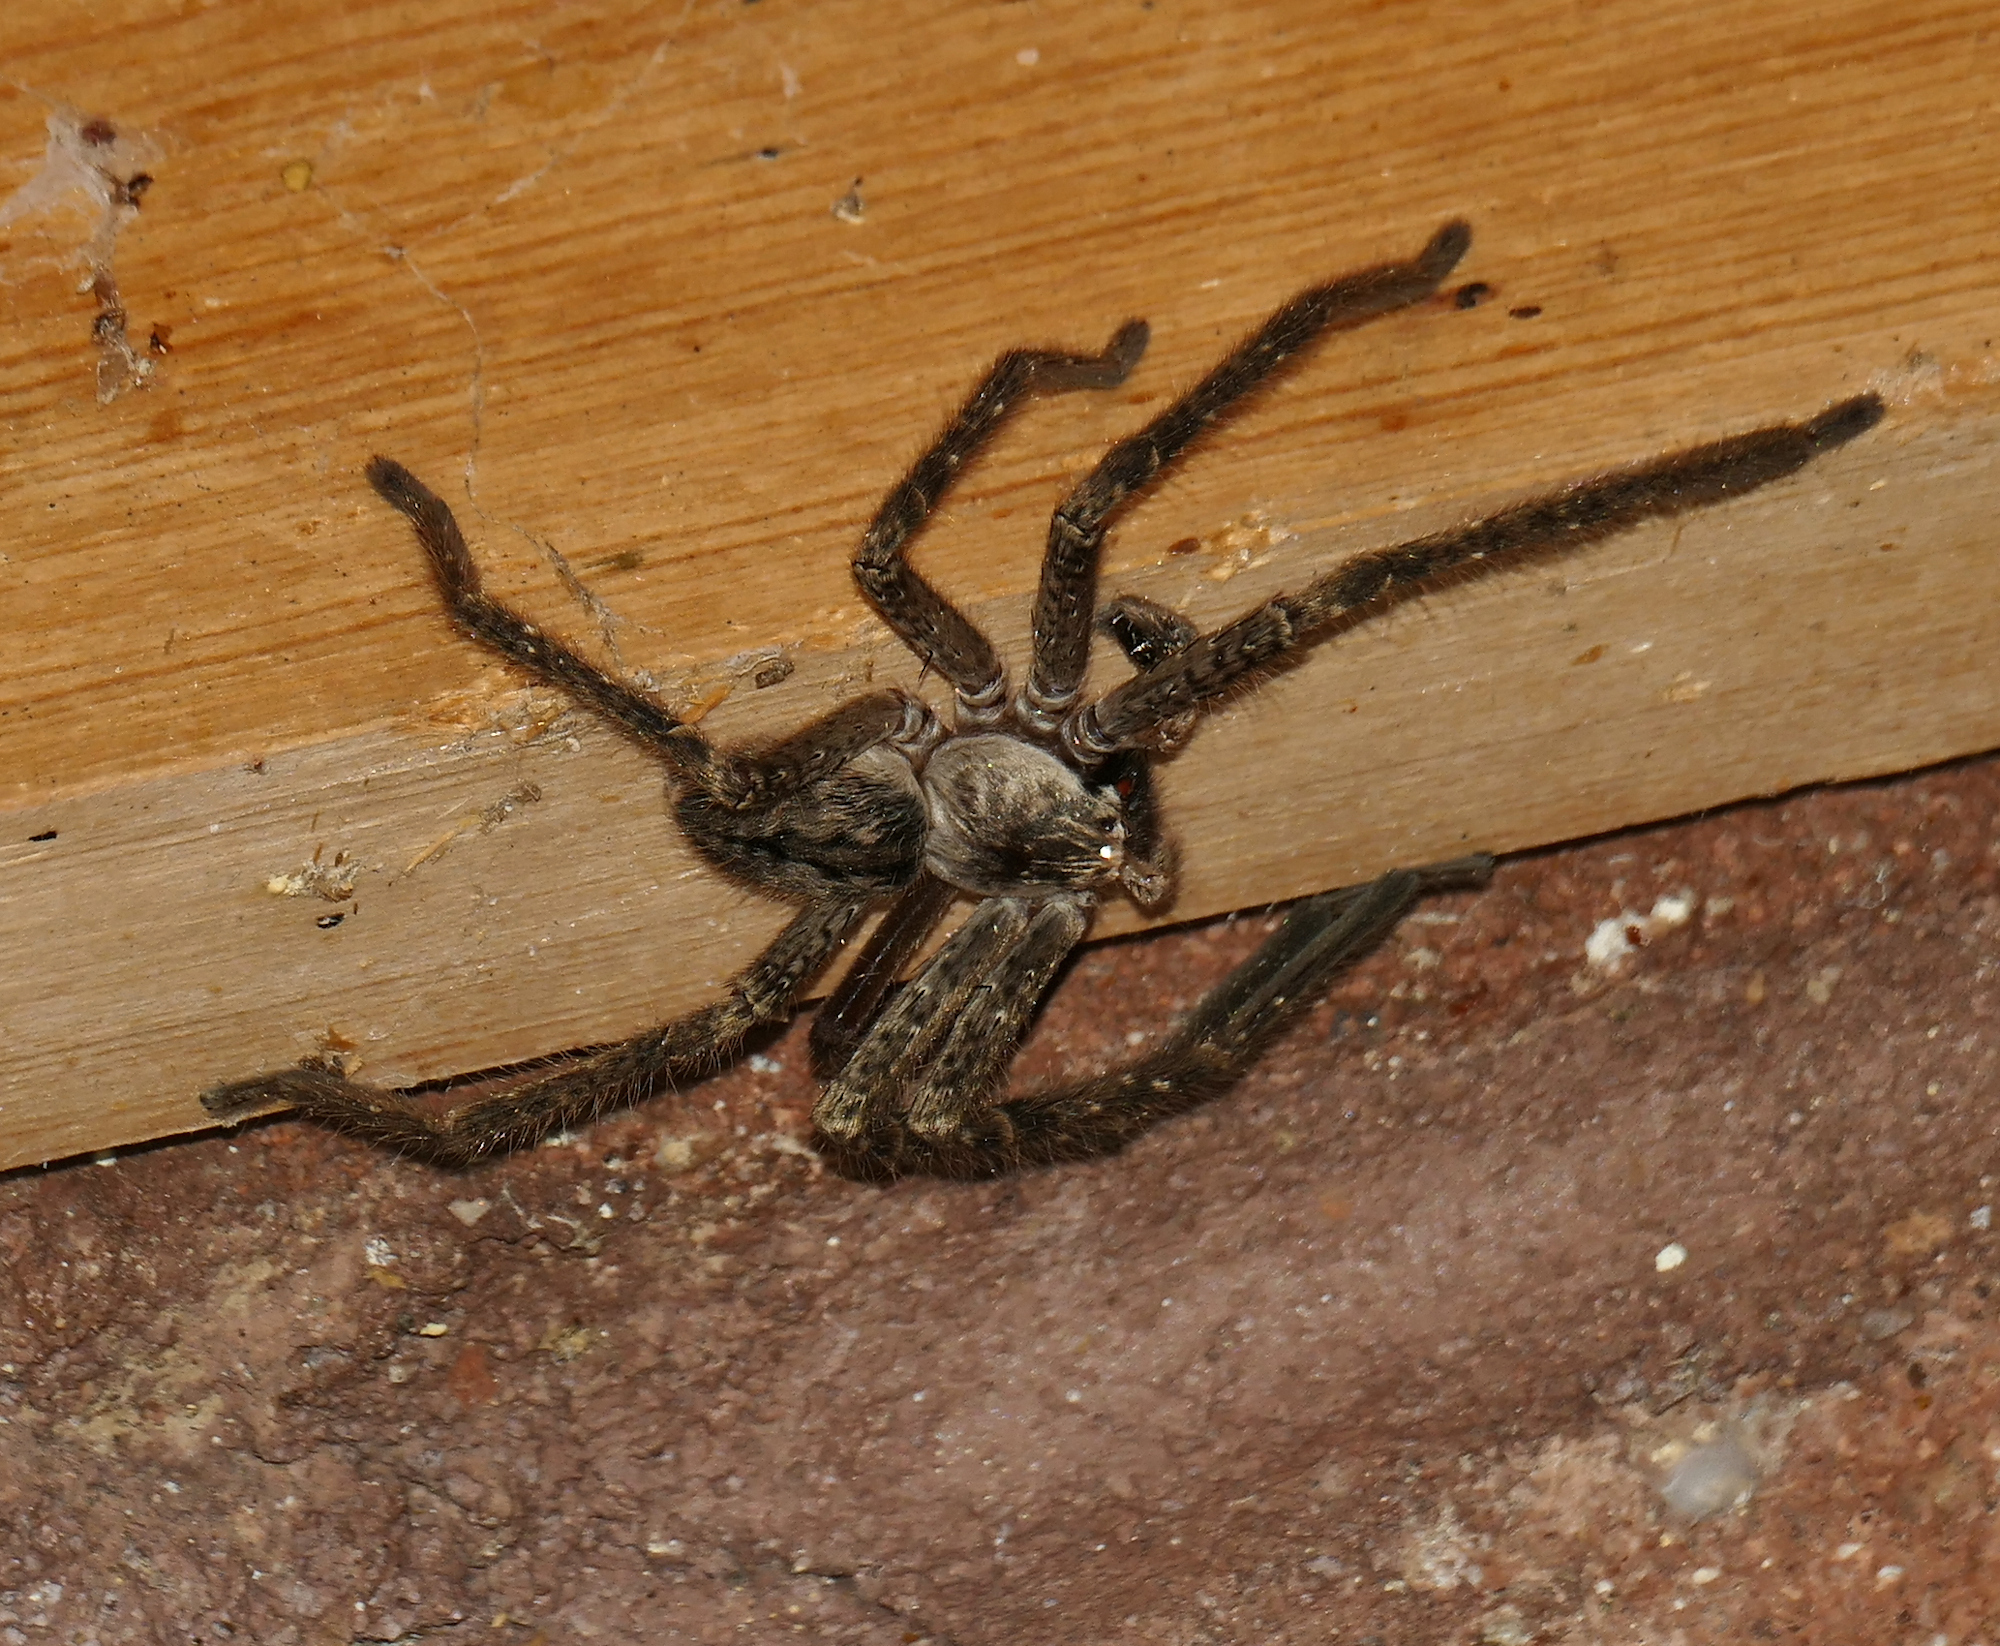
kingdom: Animalia
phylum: Arthropoda
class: Arachnida
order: Araneae
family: Sparassidae
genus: Olios
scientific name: Olios giganteus
